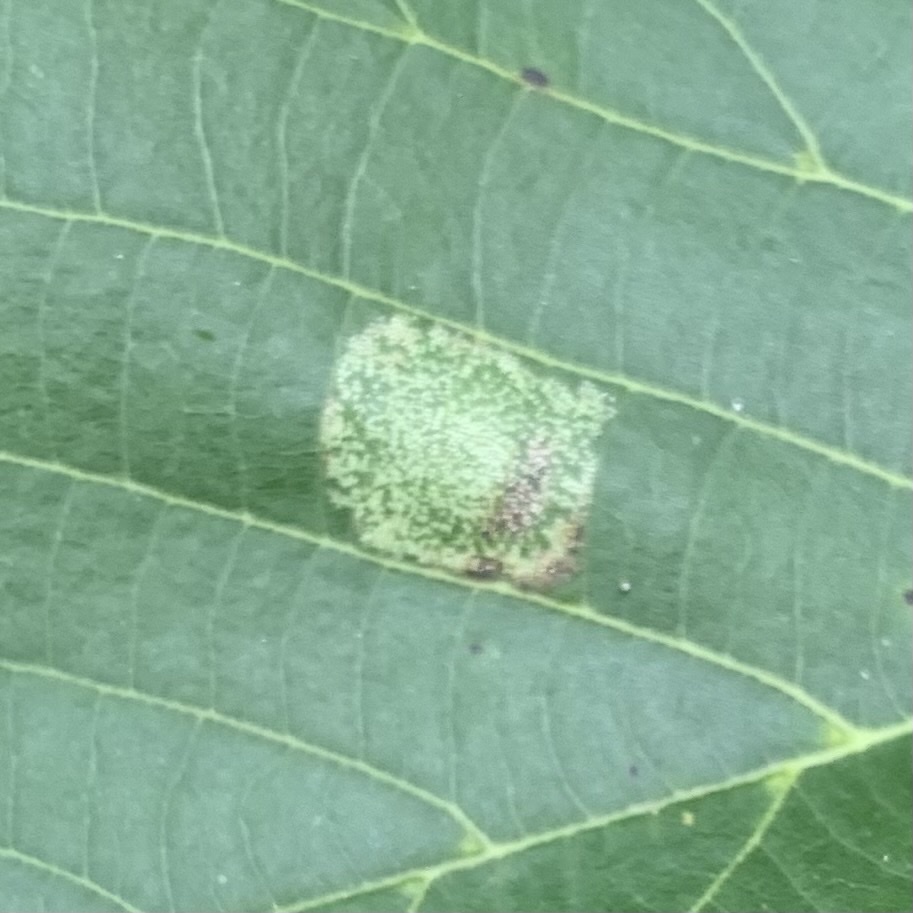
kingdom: Animalia
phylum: Arthropoda
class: Insecta
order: Lepidoptera
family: Gracillariidae
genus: Phyllonorycter
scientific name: Phyllonorycter lucetiella
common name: Basswood miner moth
